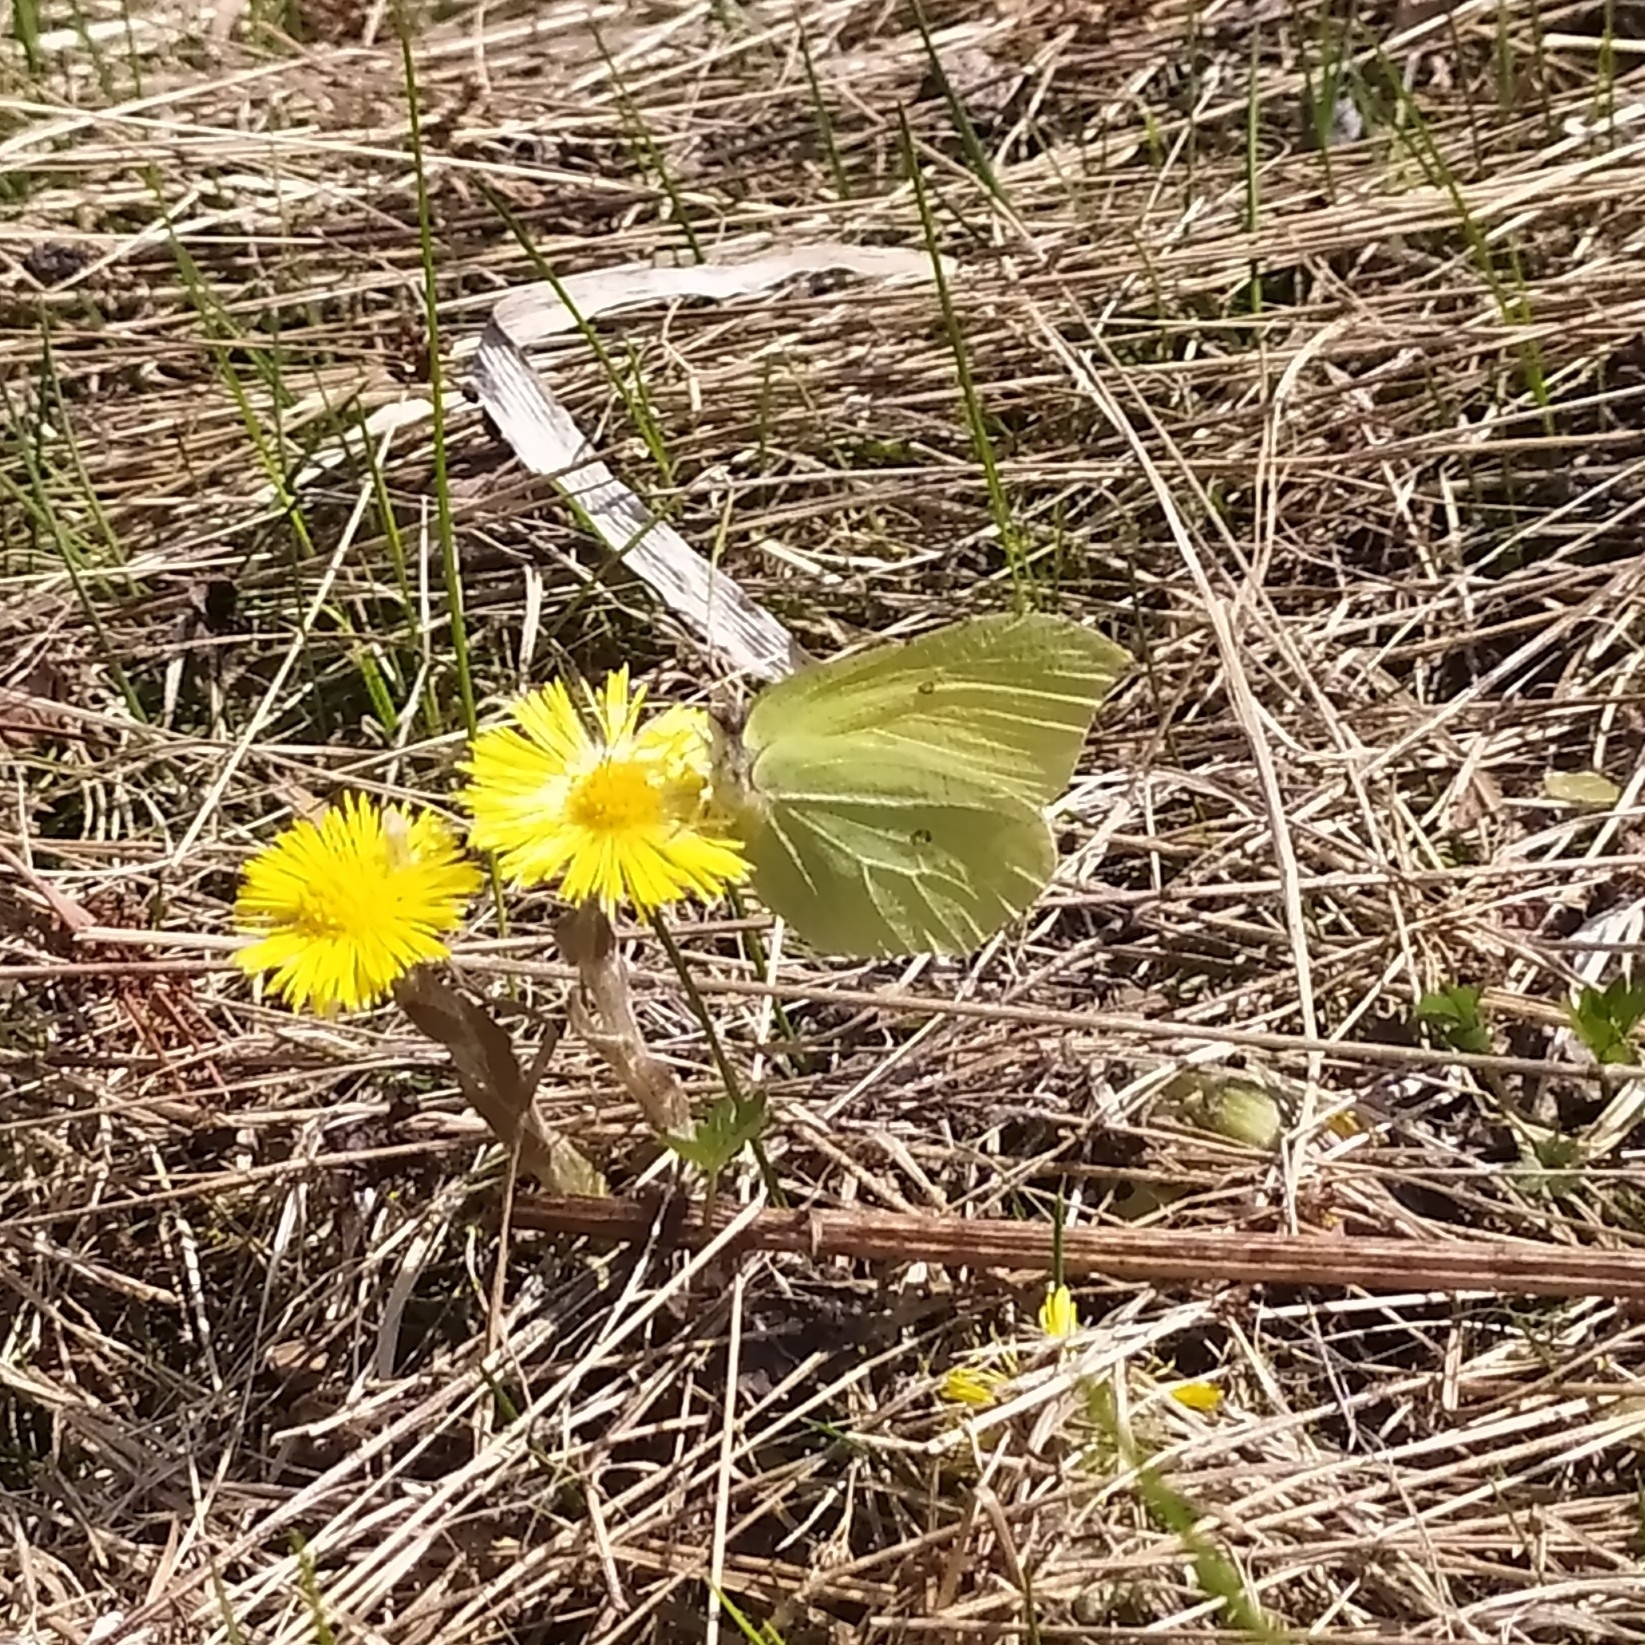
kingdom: Animalia
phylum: Arthropoda
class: Insecta
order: Lepidoptera
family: Pieridae
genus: Gonepteryx
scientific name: Gonepteryx rhamni
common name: Brimstone
